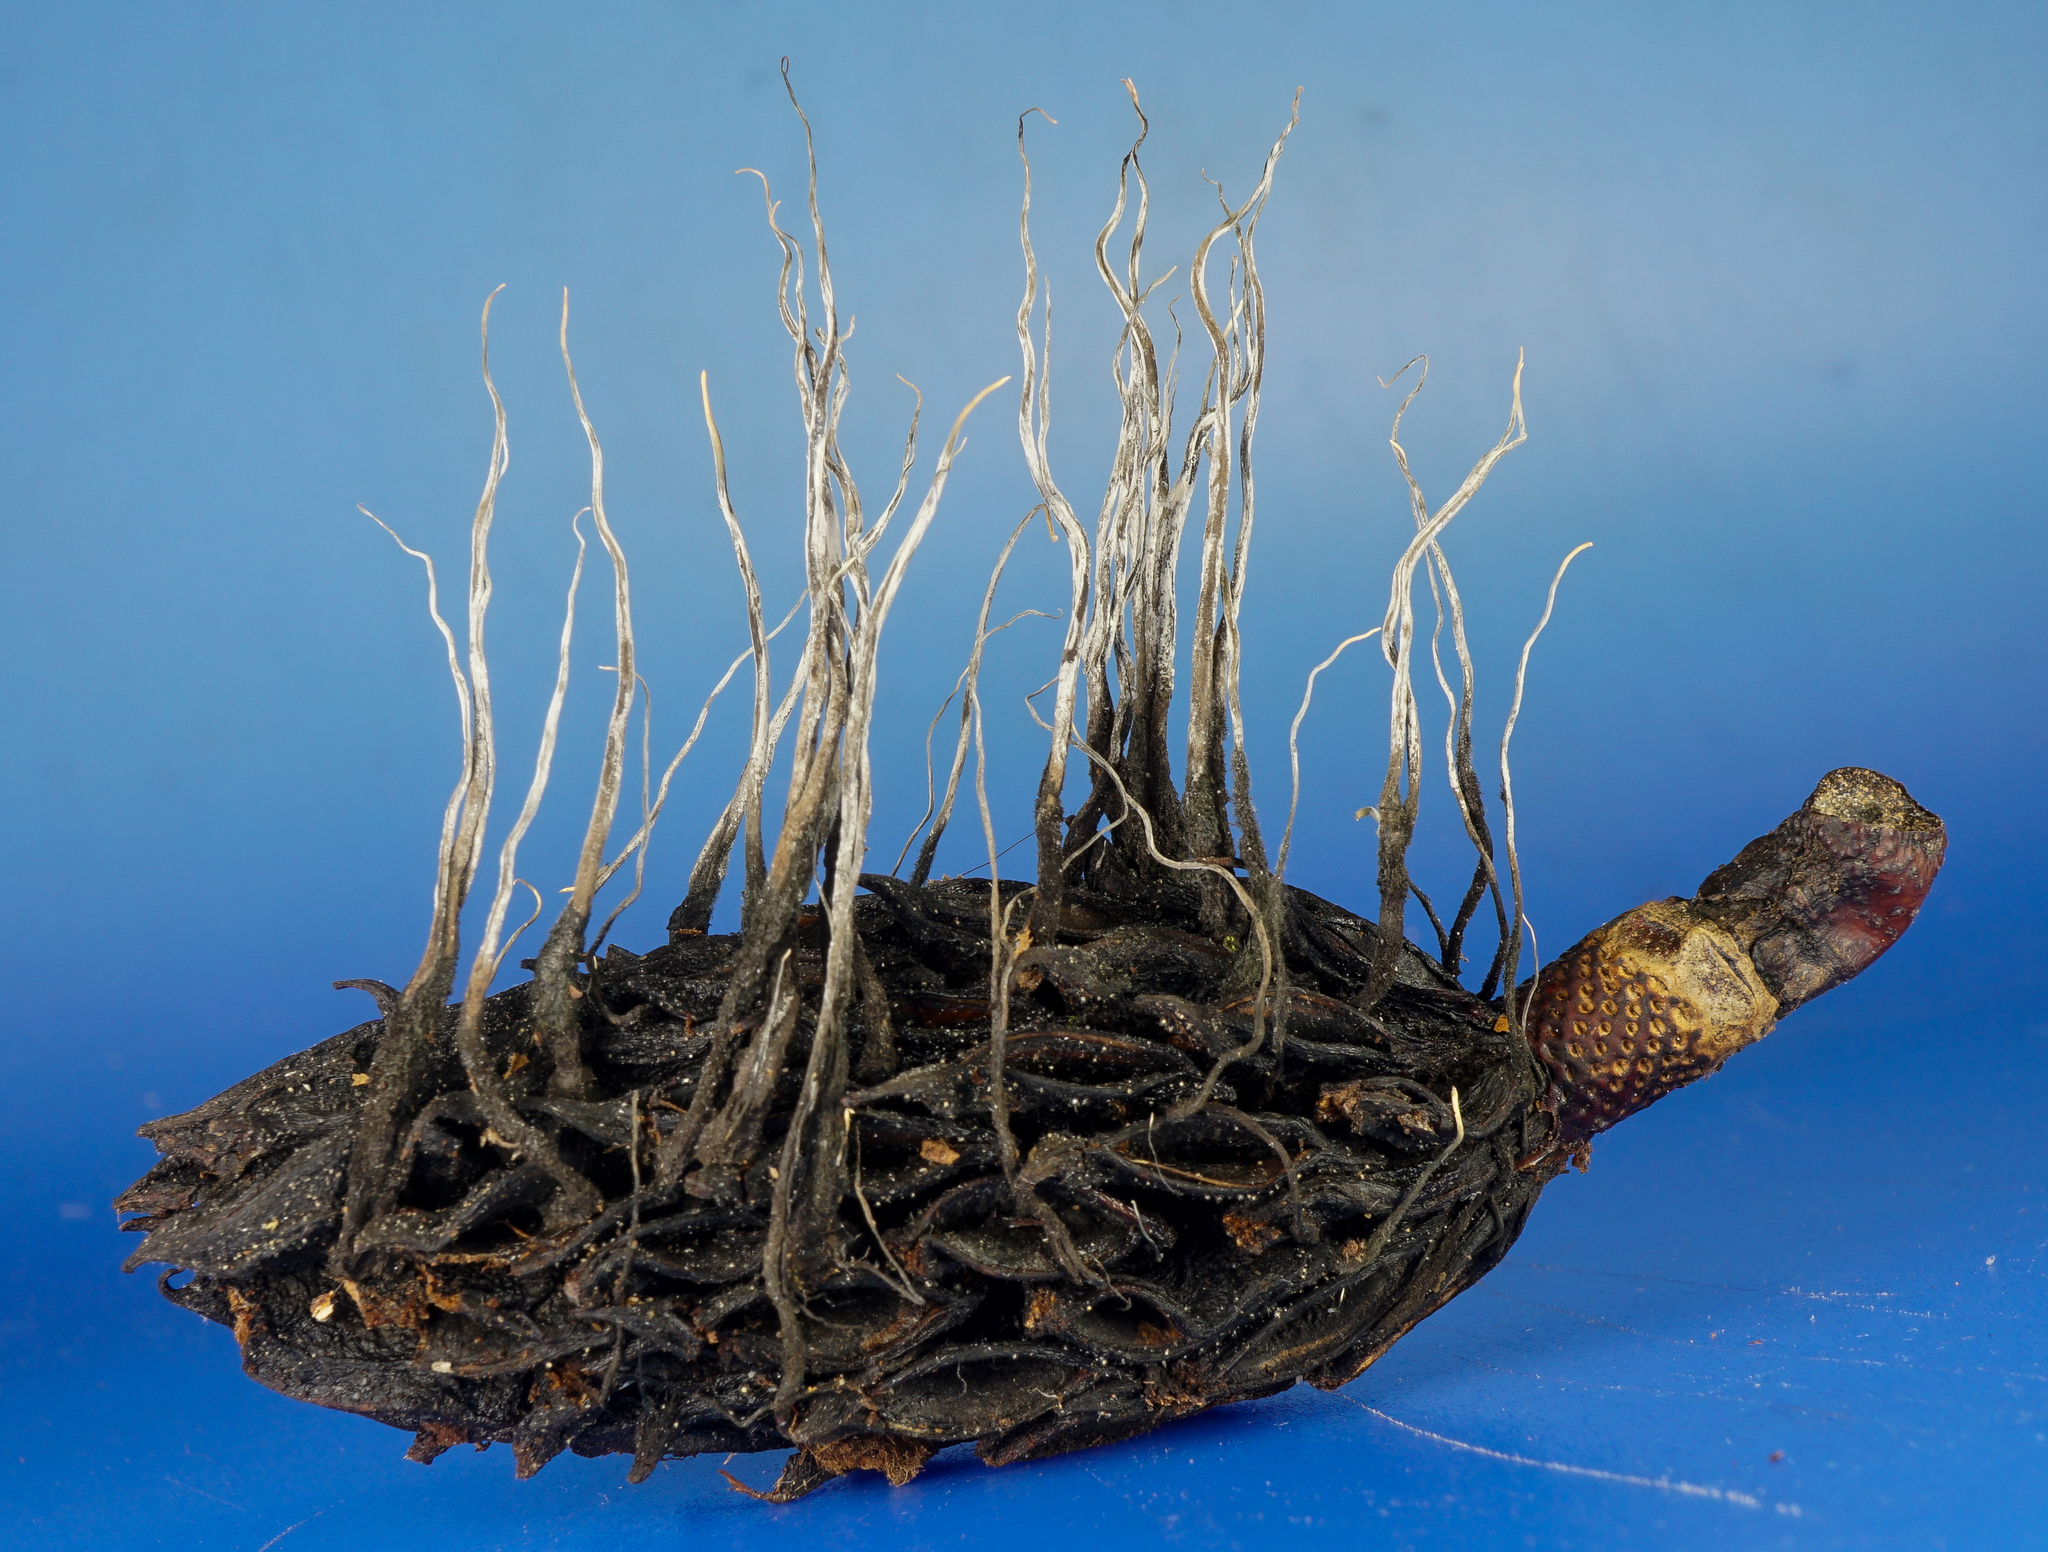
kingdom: Fungi
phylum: Ascomycota
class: Sordariomycetes
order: Xylariales
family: Xylariaceae
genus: Xylaria
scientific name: Xylaria magnoliae
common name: Magnolia-cone xylaria
